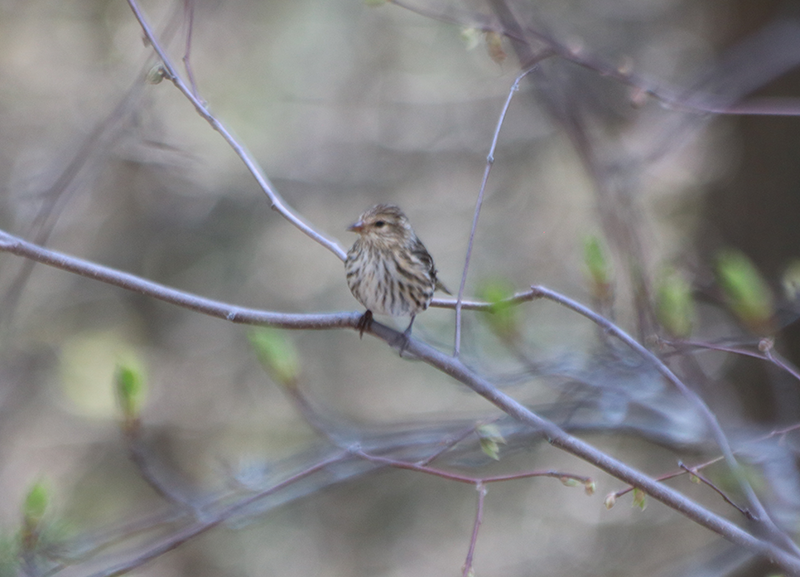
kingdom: Animalia
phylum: Chordata
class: Aves
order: Passeriformes
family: Fringillidae
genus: Spinus
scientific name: Spinus pinus
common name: Pine siskin
